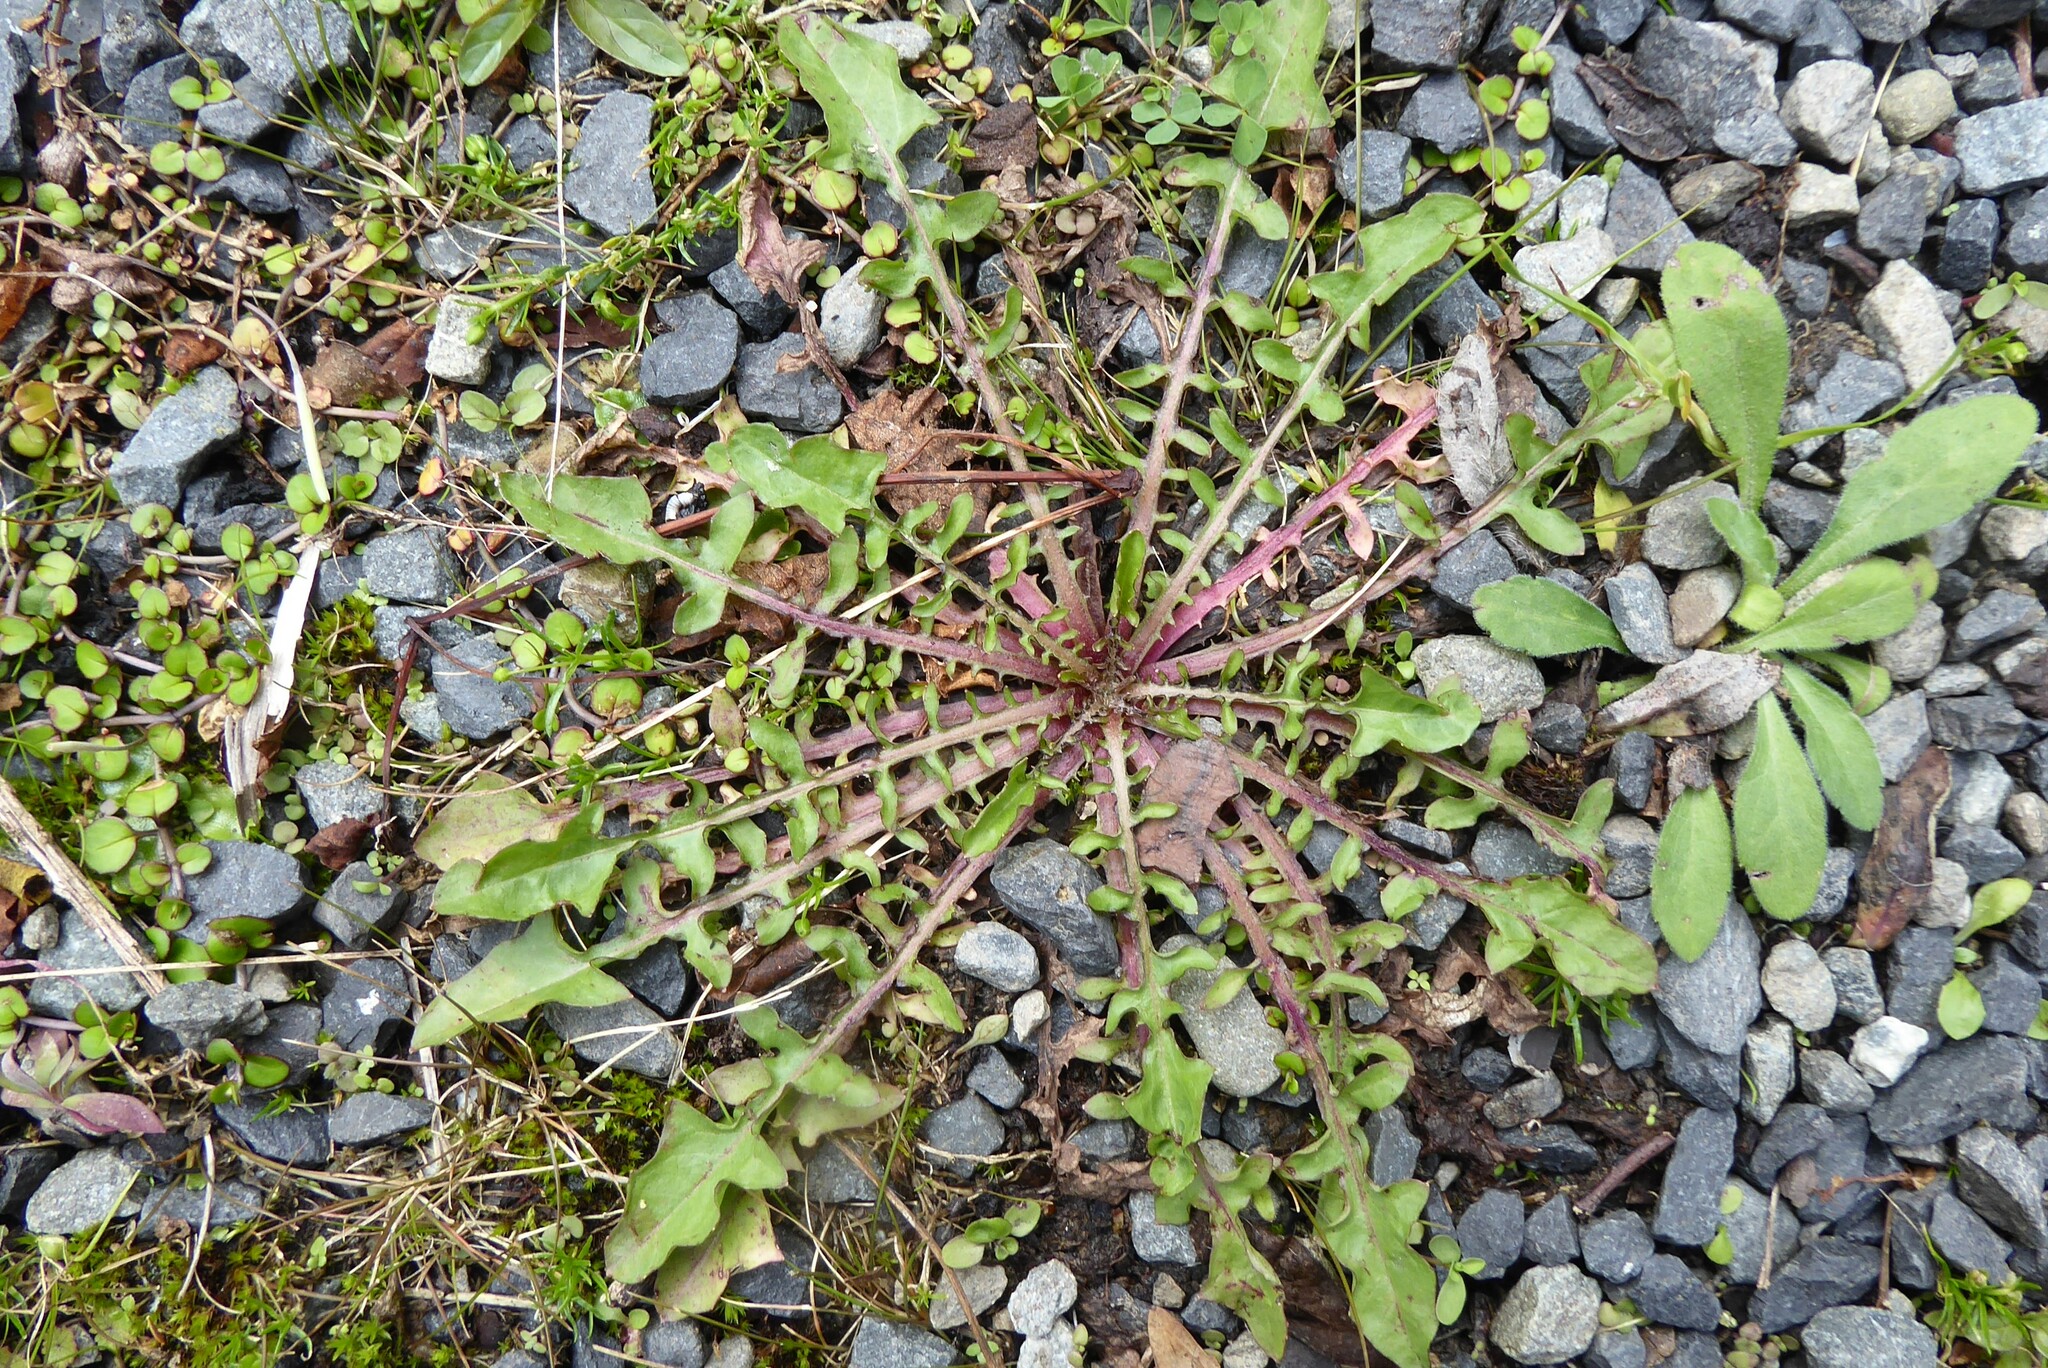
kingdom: Plantae
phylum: Tracheophyta
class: Magnoliopsida
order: Asterales
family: Asteraceae
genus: Crepis
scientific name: Crepis capillaris
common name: Smooth hawksbeard
